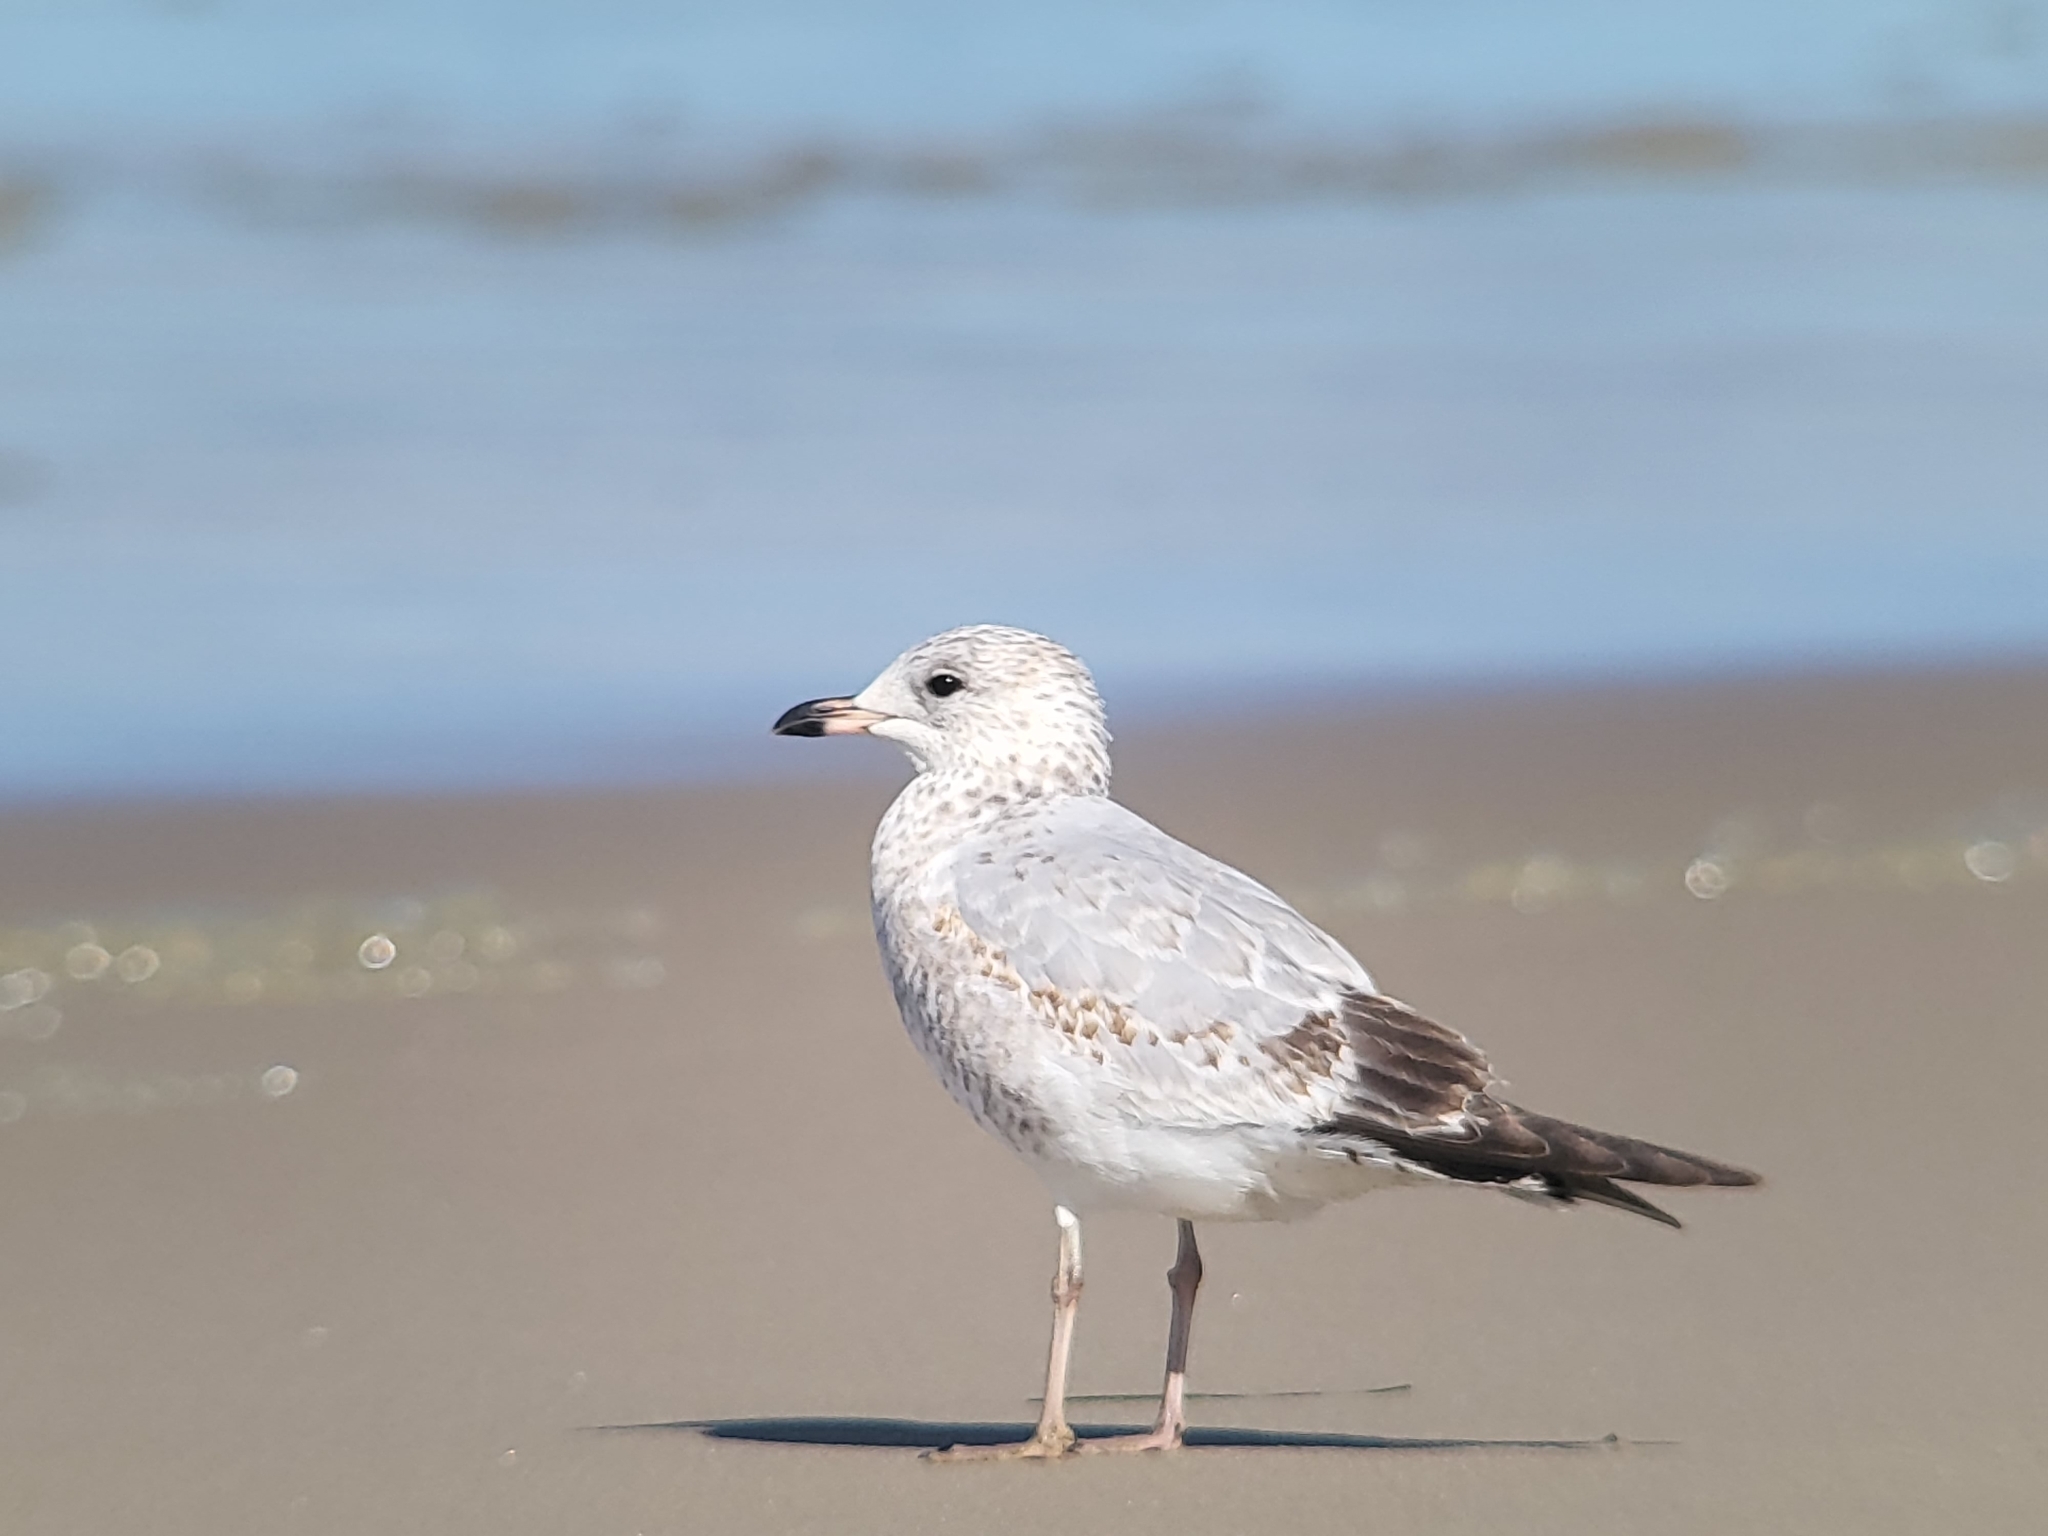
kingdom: Animalia
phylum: Chordata
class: Aves
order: Charadriiformes
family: Laridae
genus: Larus
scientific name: Larus delawarensis
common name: Ring-billed gull
